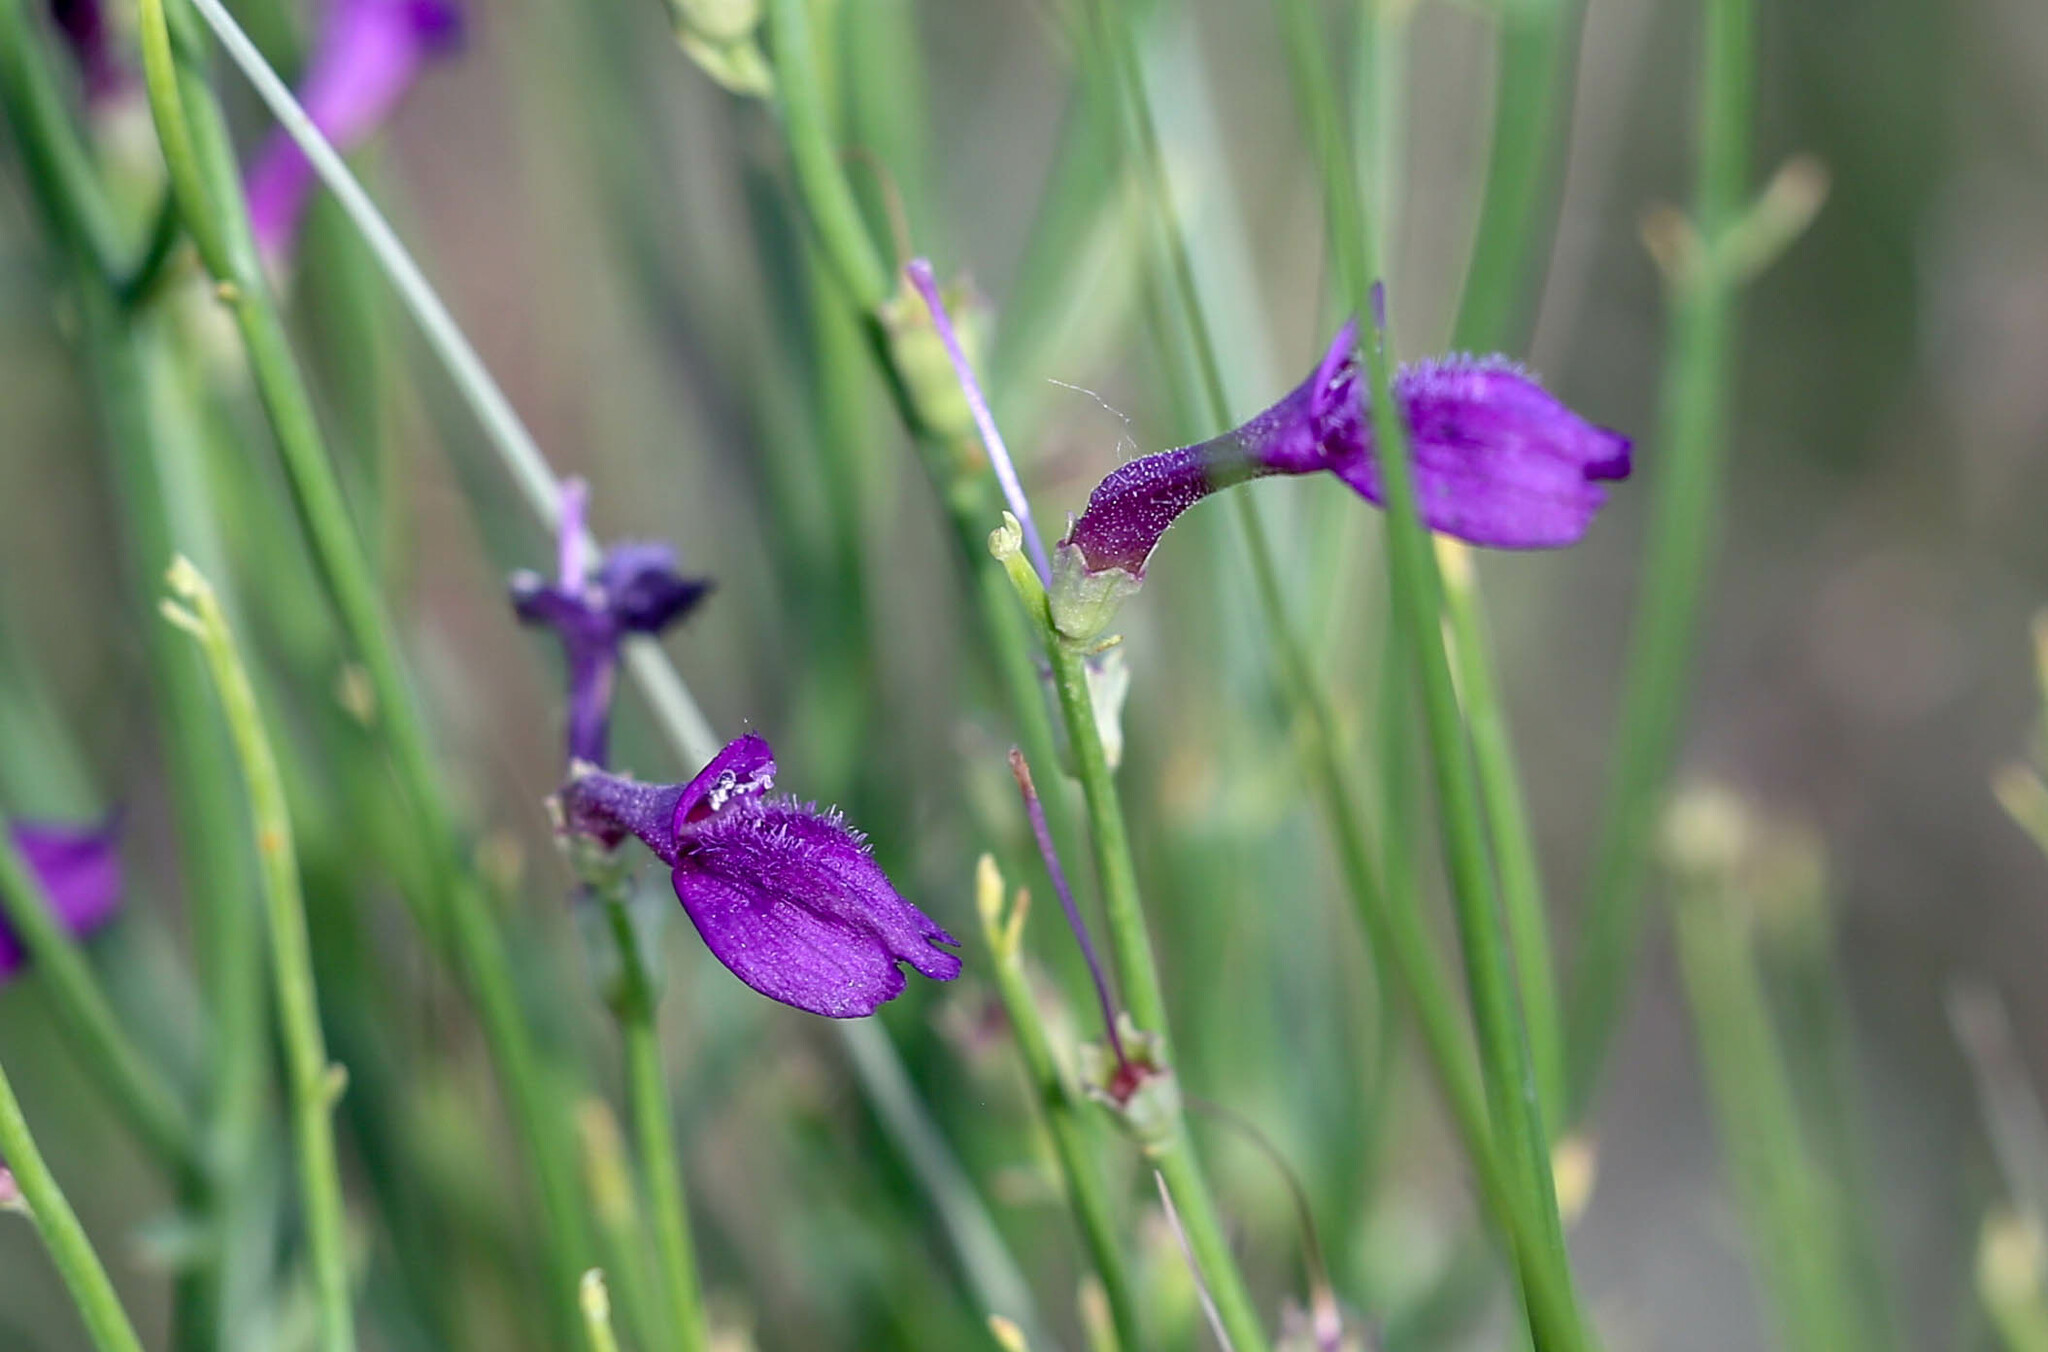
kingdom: Plantae
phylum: Tracheophyta
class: Magnoliopsida
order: Lamiales
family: Mazaceae
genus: Dodartia
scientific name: Dodartia orientalis
